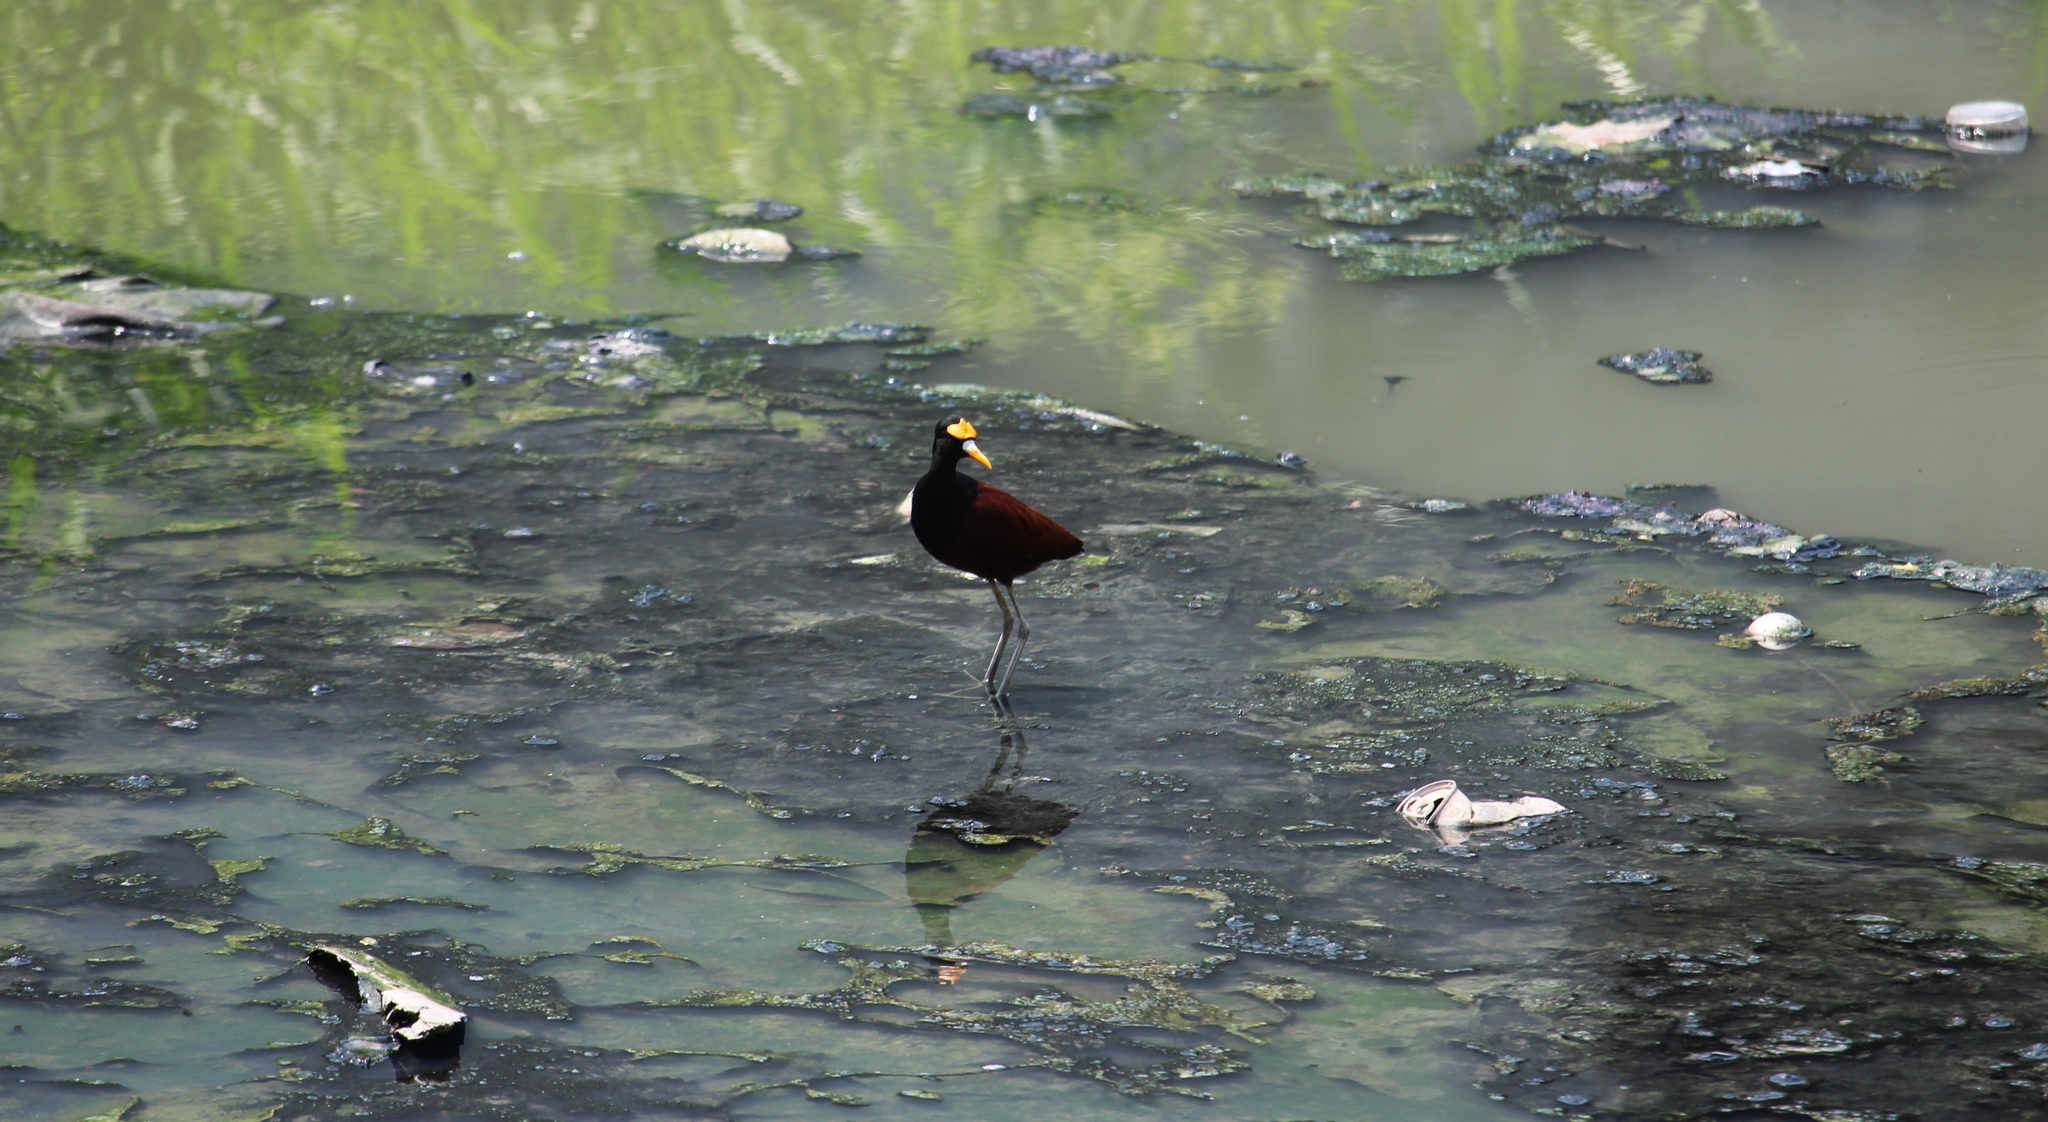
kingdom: Animalia
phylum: Chordata
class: Aves
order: Charadriiformes
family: Jacanidae
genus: Jacana
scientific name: Jacana spinosa
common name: Northern jacana
